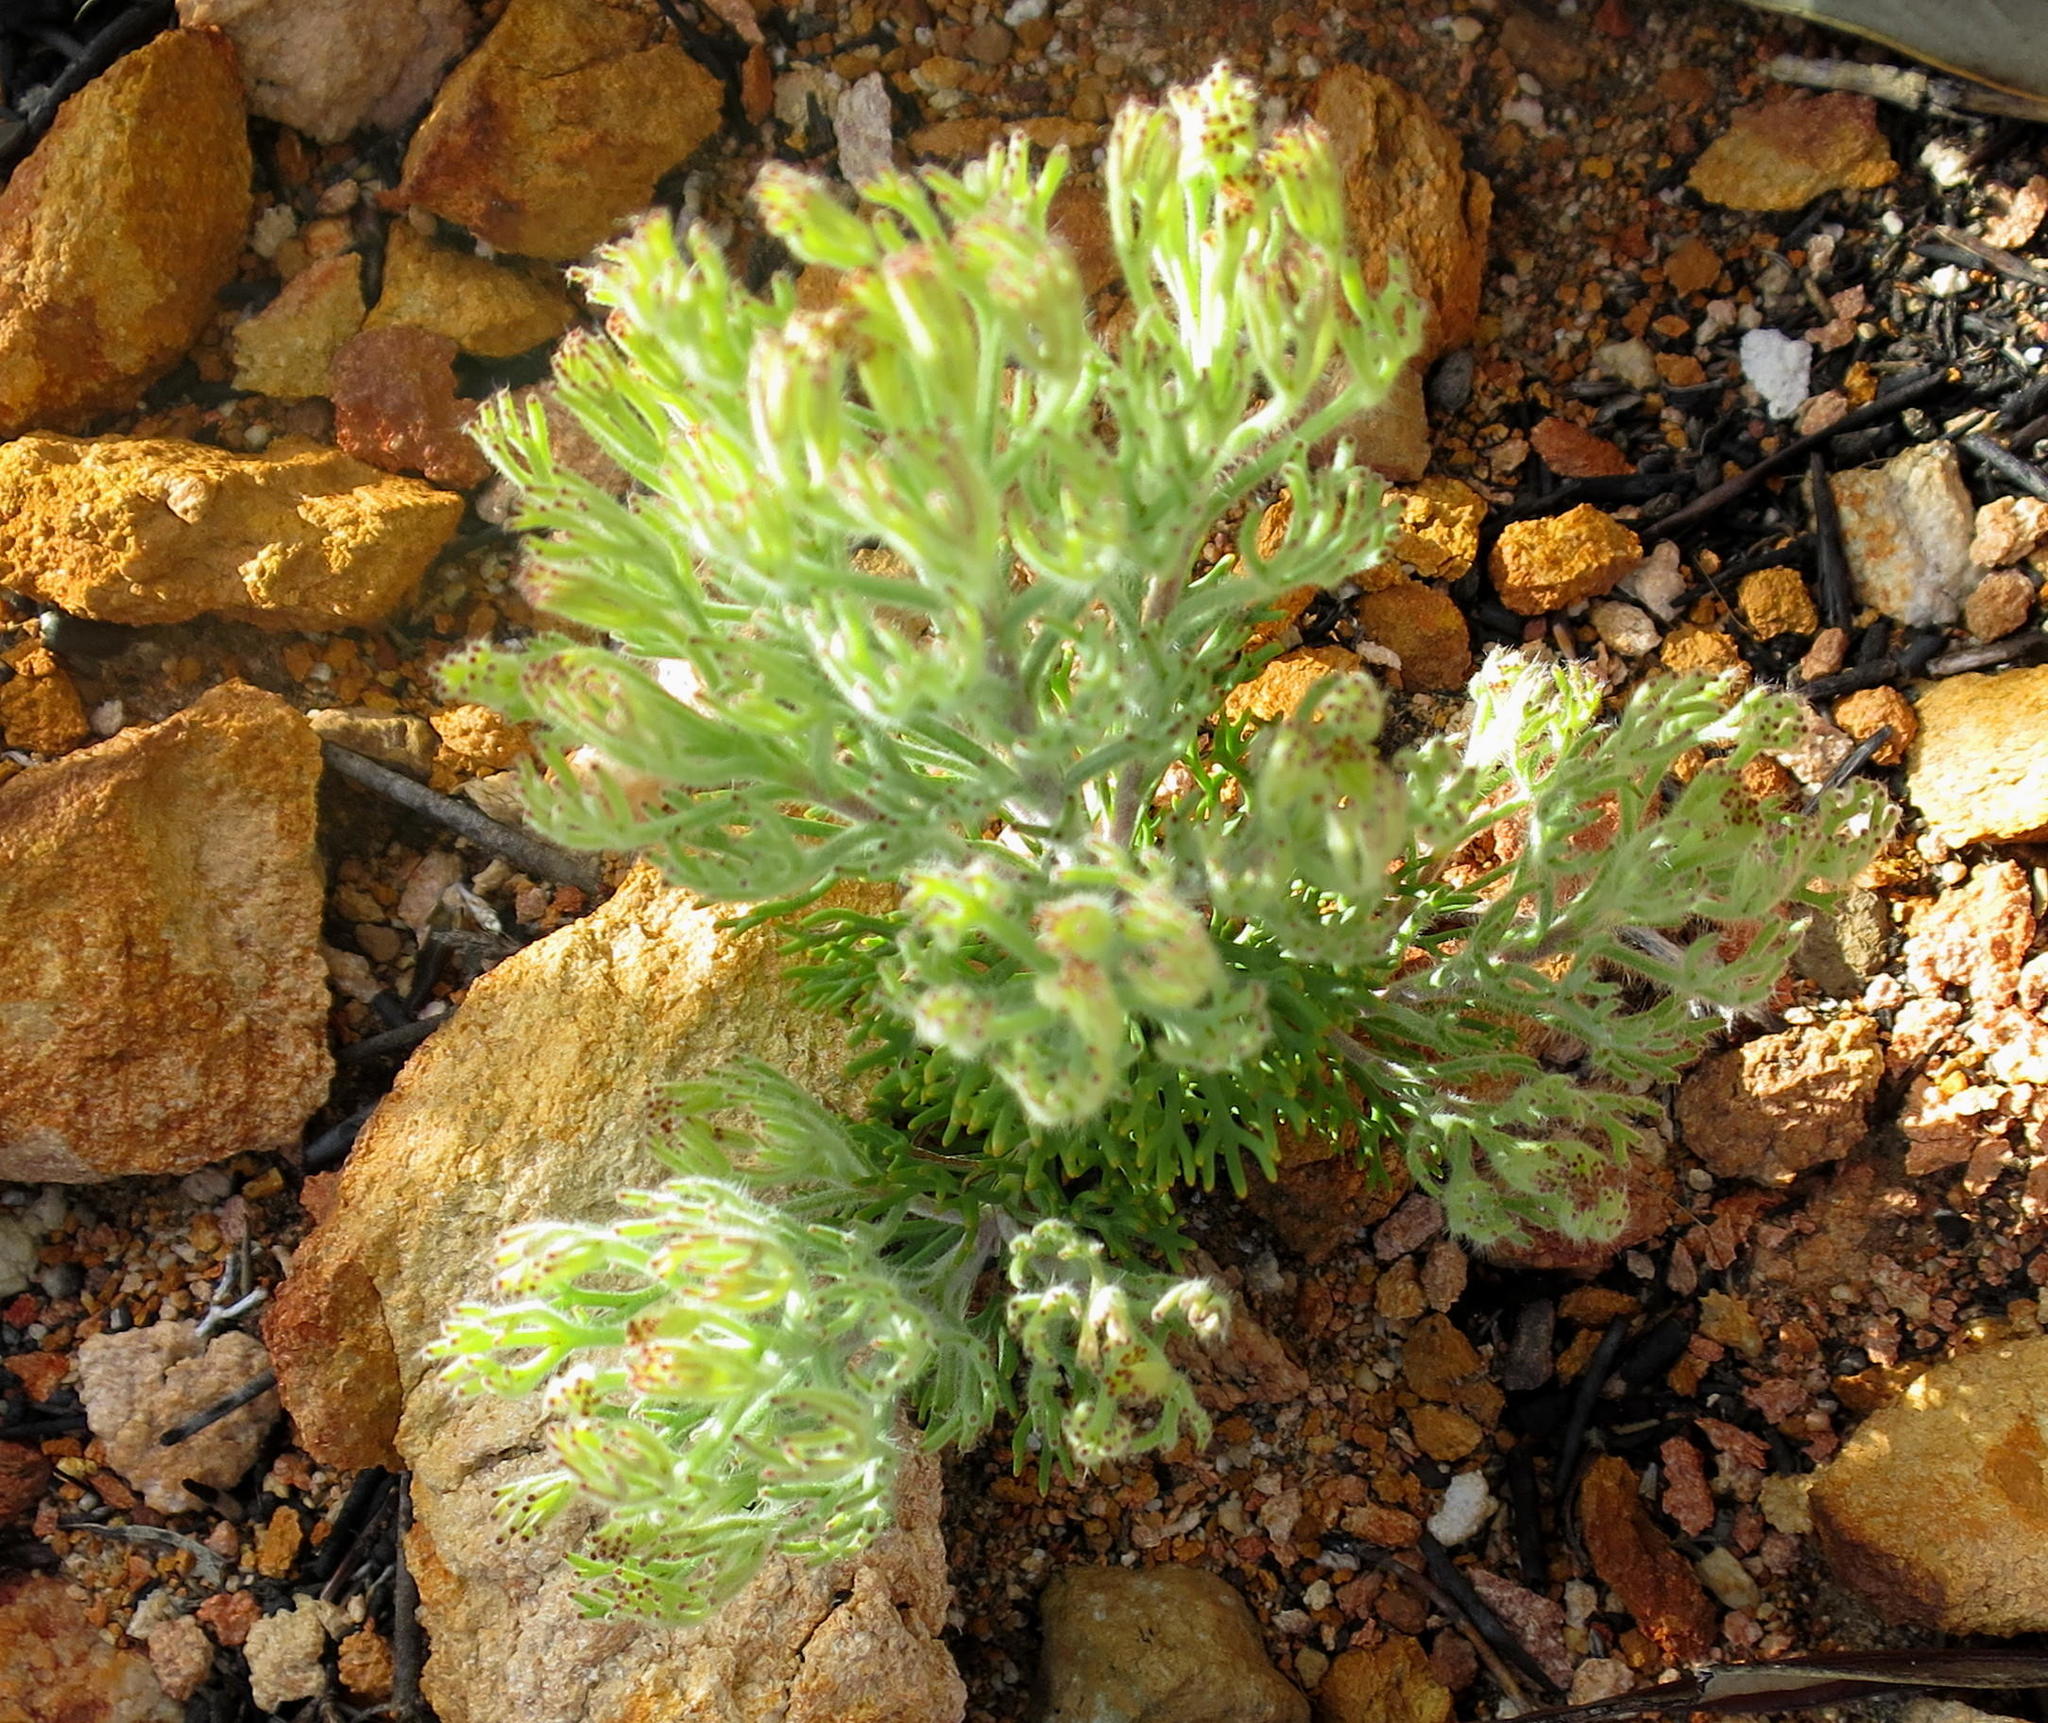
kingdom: Plantae
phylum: Tracheophyta
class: Magnoliopsida
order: Proteales
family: Proteaceae
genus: Paranomus
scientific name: Paranomus dispersus
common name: Long-head sceptre
